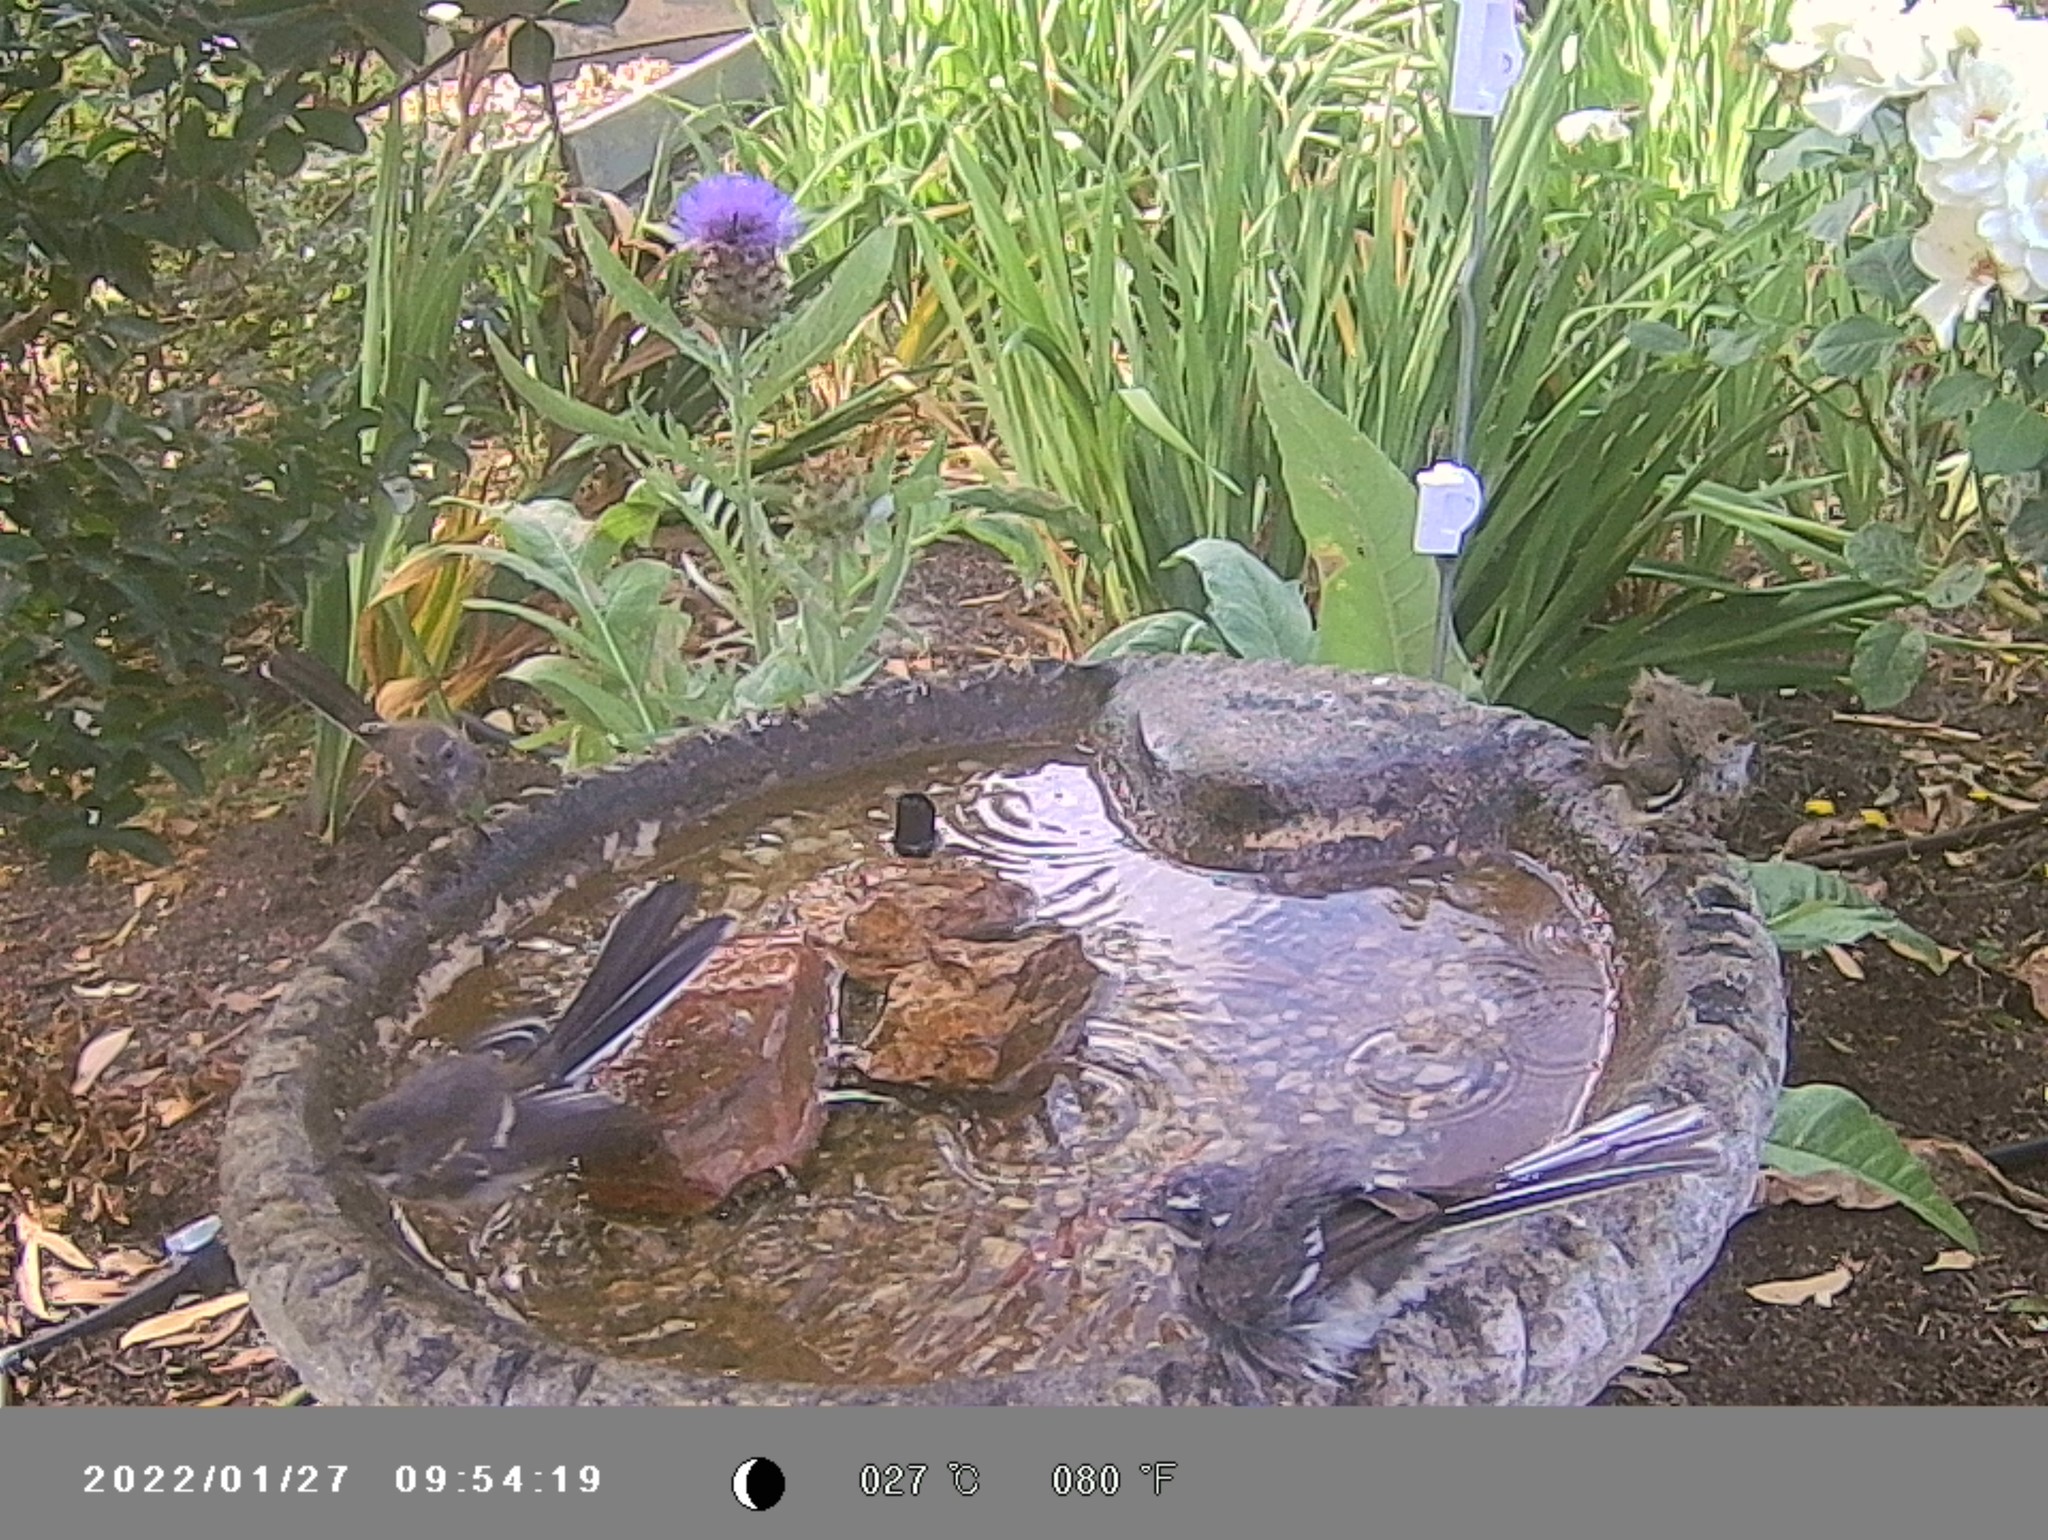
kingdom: Animalia
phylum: Chordata
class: Aves
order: Passeriformes
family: Rhipiduridae
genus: Rhipidura
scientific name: Rhipidura albiscapa
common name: Grey fantail
